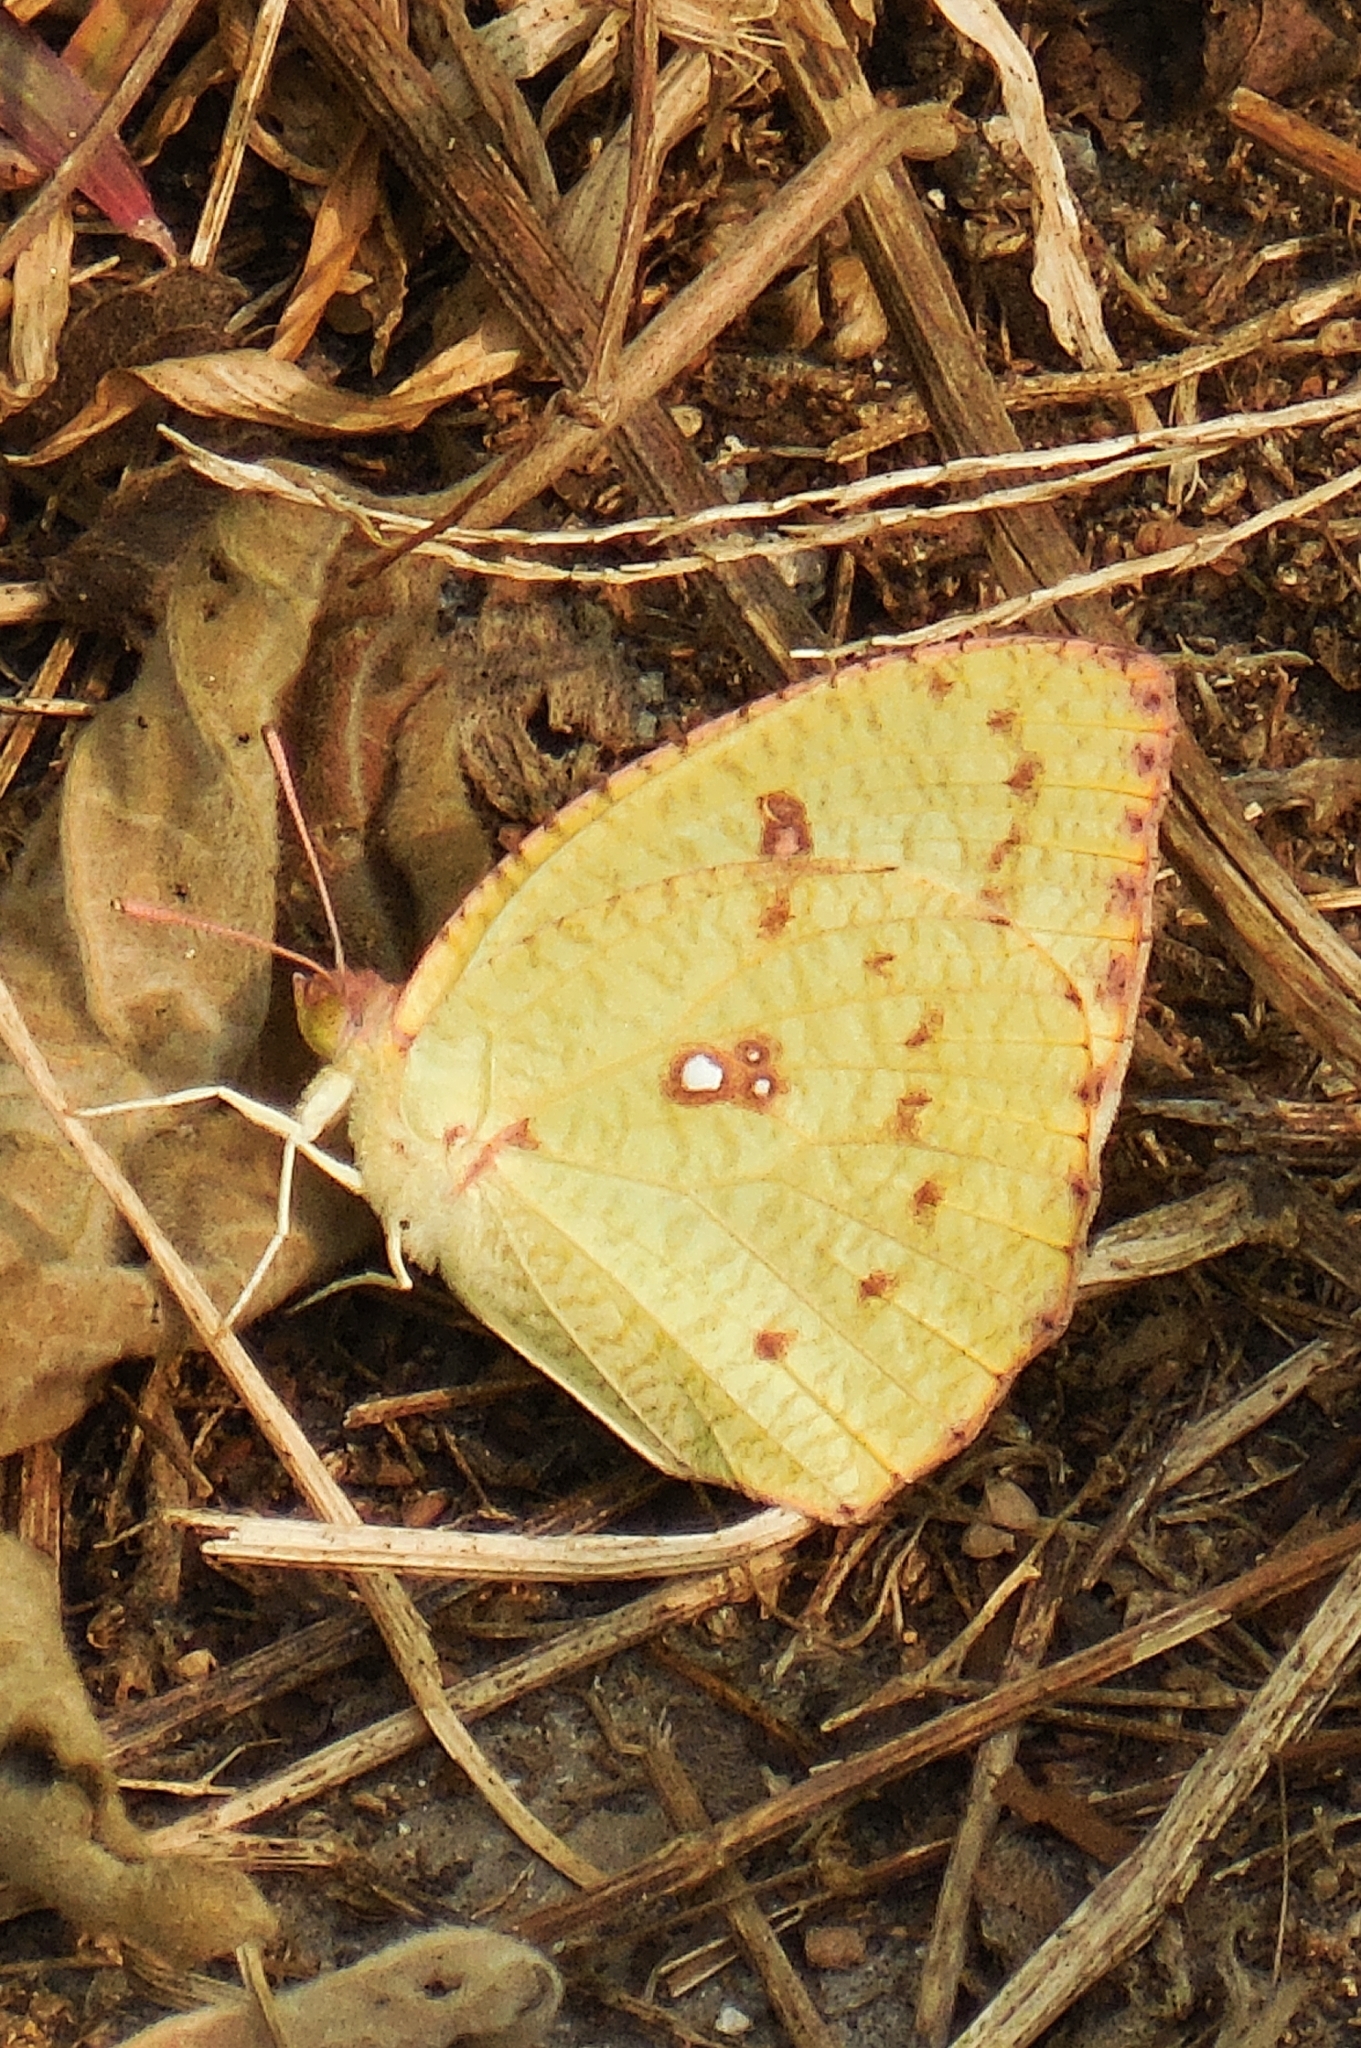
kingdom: Animalia
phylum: Arthropoda
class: Insecta
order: Lepidoptera
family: Pieridae
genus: Catopsilia
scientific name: Catopsilia pomona
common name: Common emigrant
